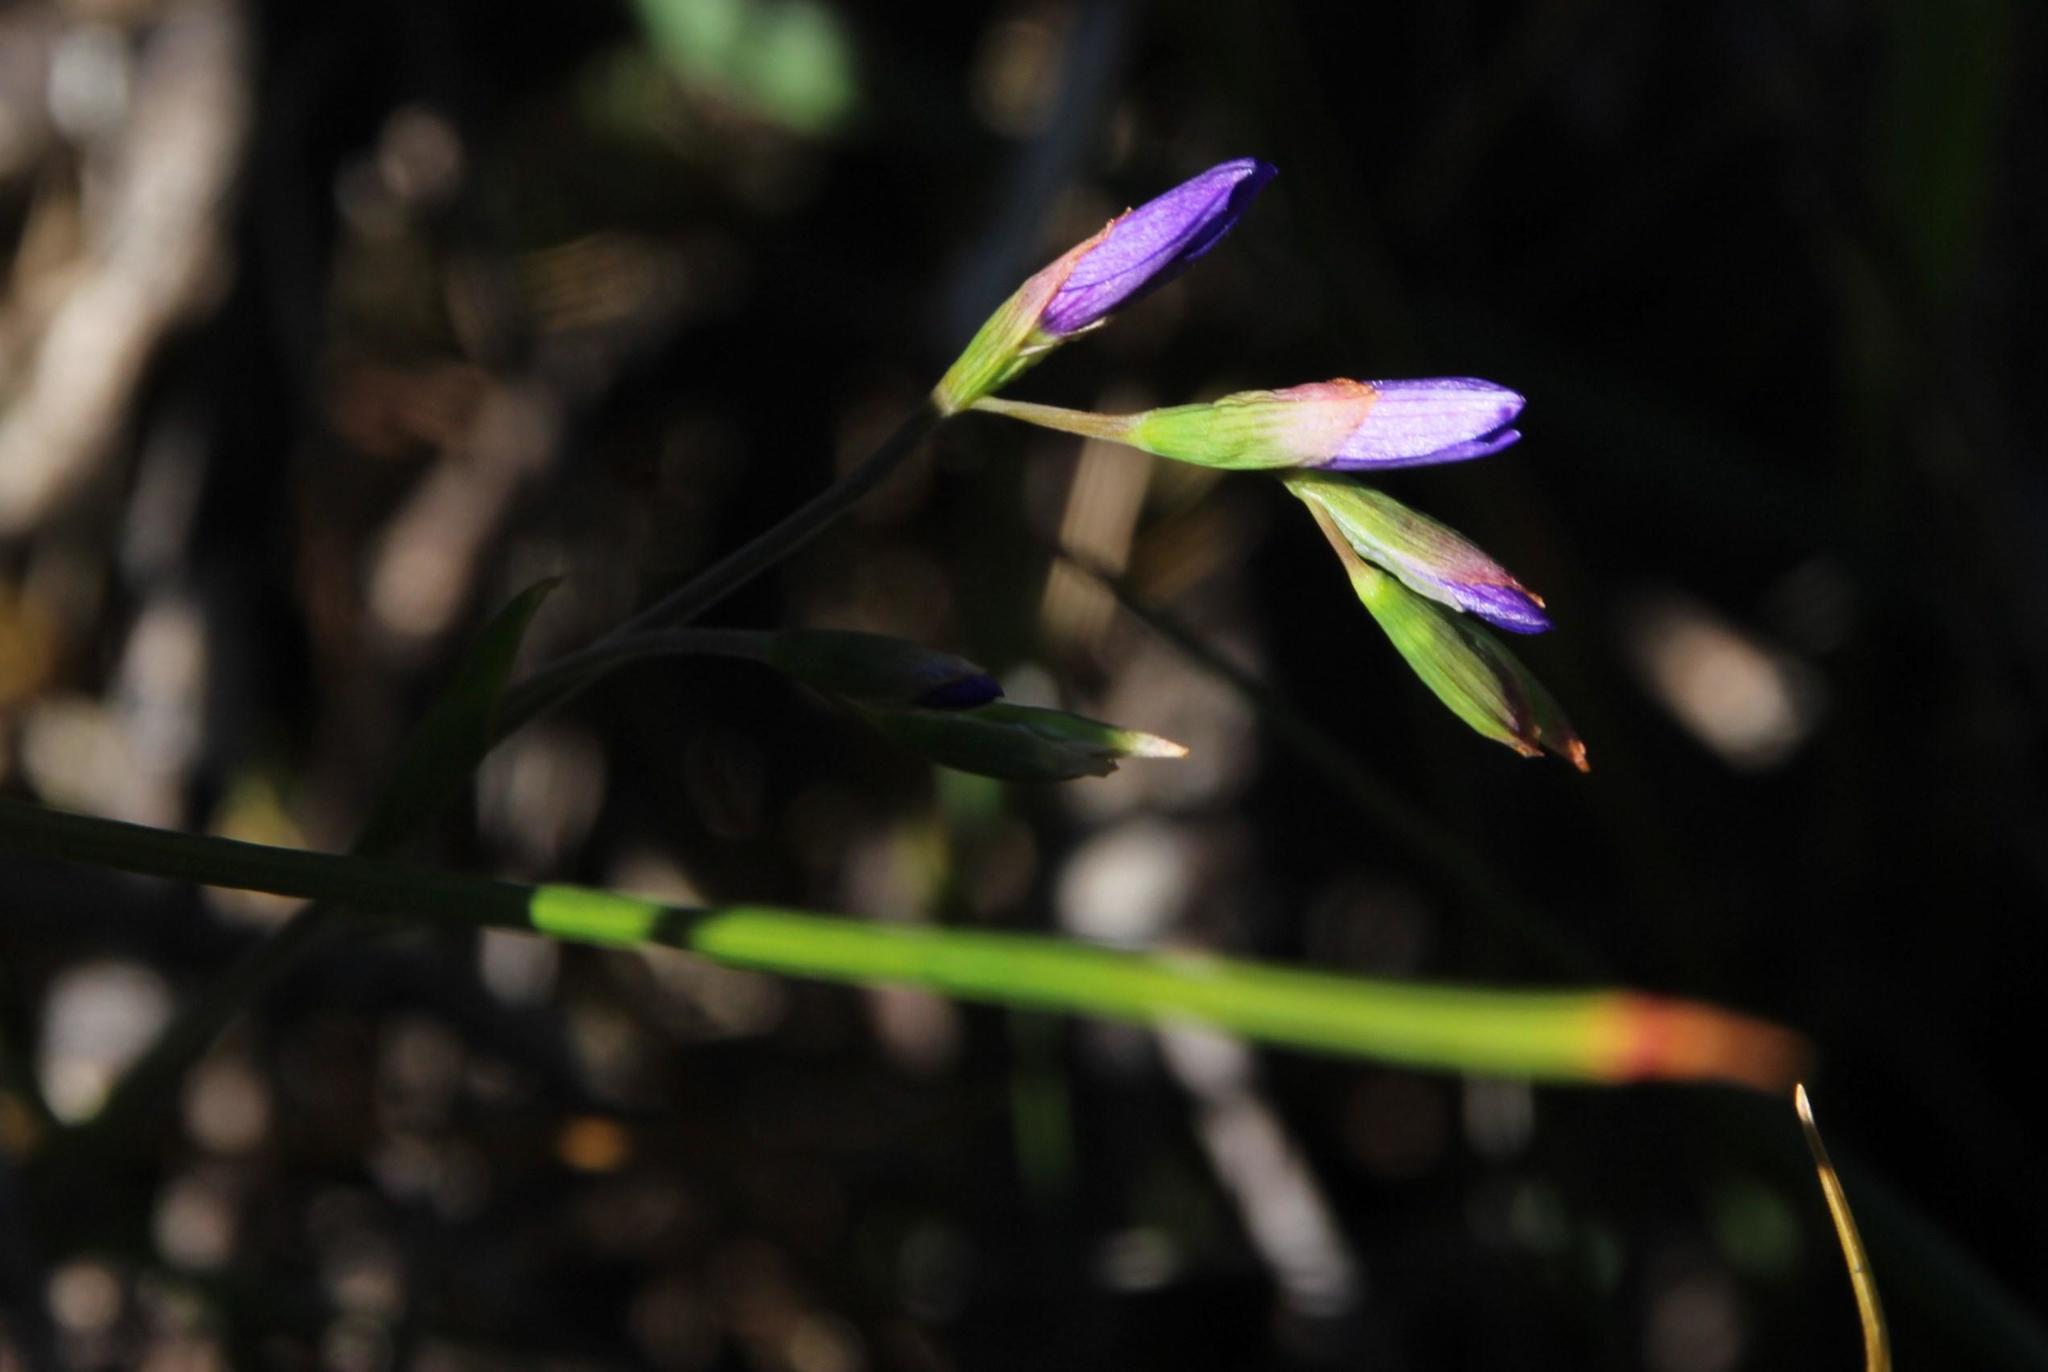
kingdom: Plantae
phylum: Tracheophyta
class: Liliopsida
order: Asparagales
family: Iridaceae
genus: Geissorhiza
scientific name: Geissorhiza aspera
